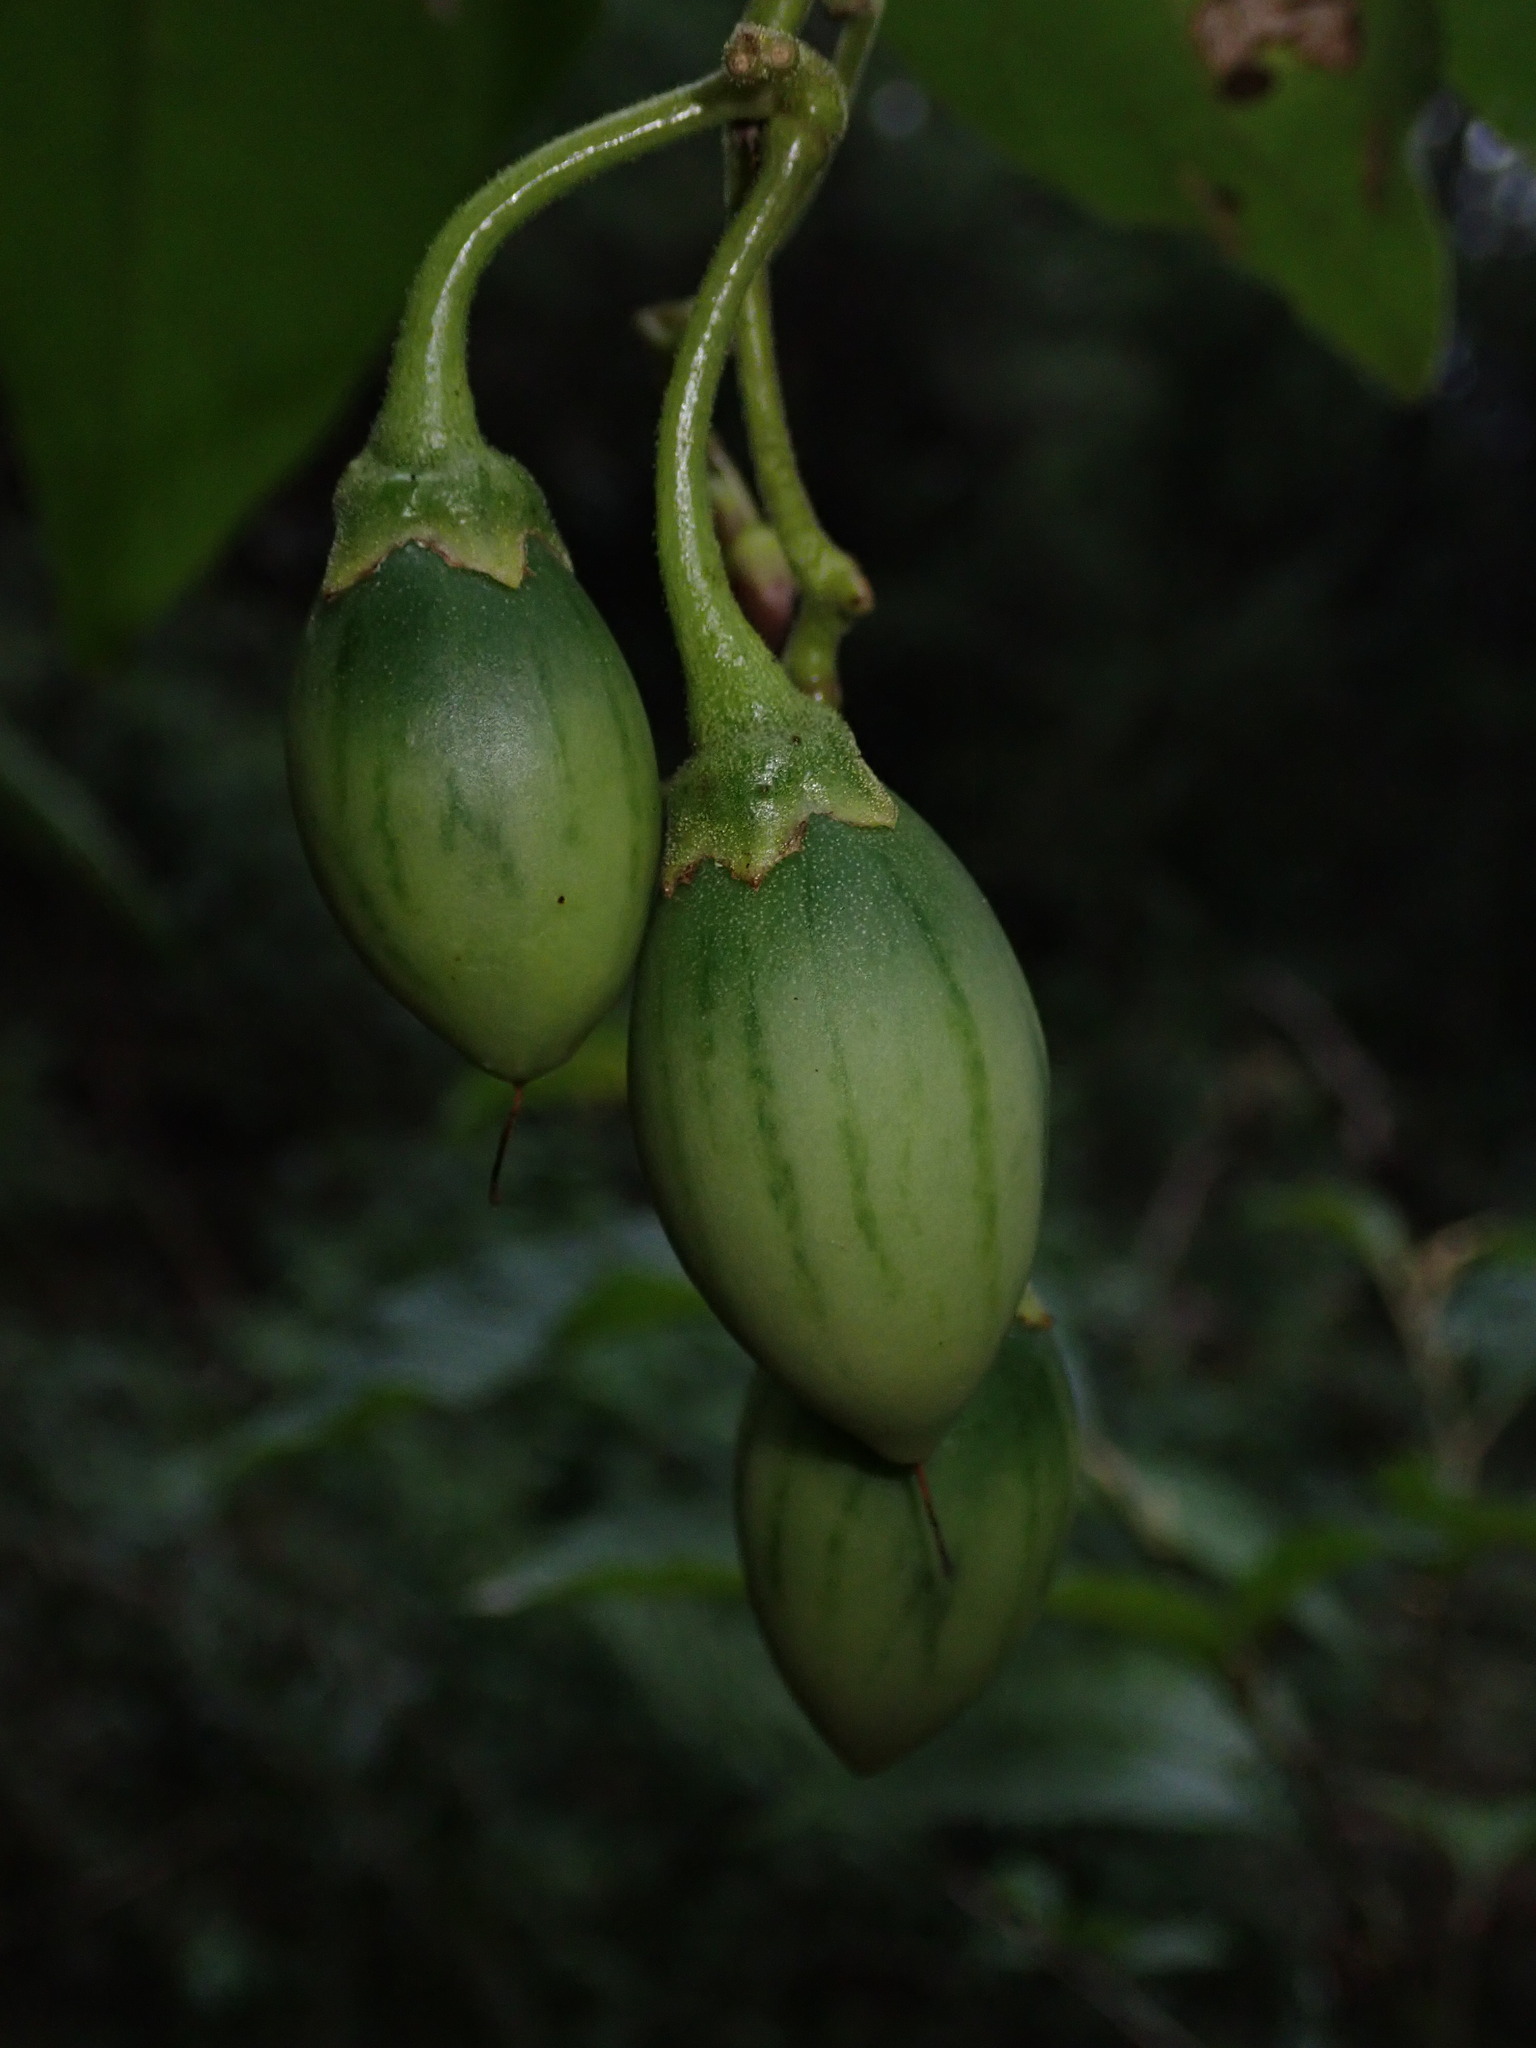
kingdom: Plantae
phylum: Tracheophyta
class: Magnoliopsida
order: Solanales
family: Solanaceae
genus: Solanum
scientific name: Solanum betaceum
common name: Tamarillo
